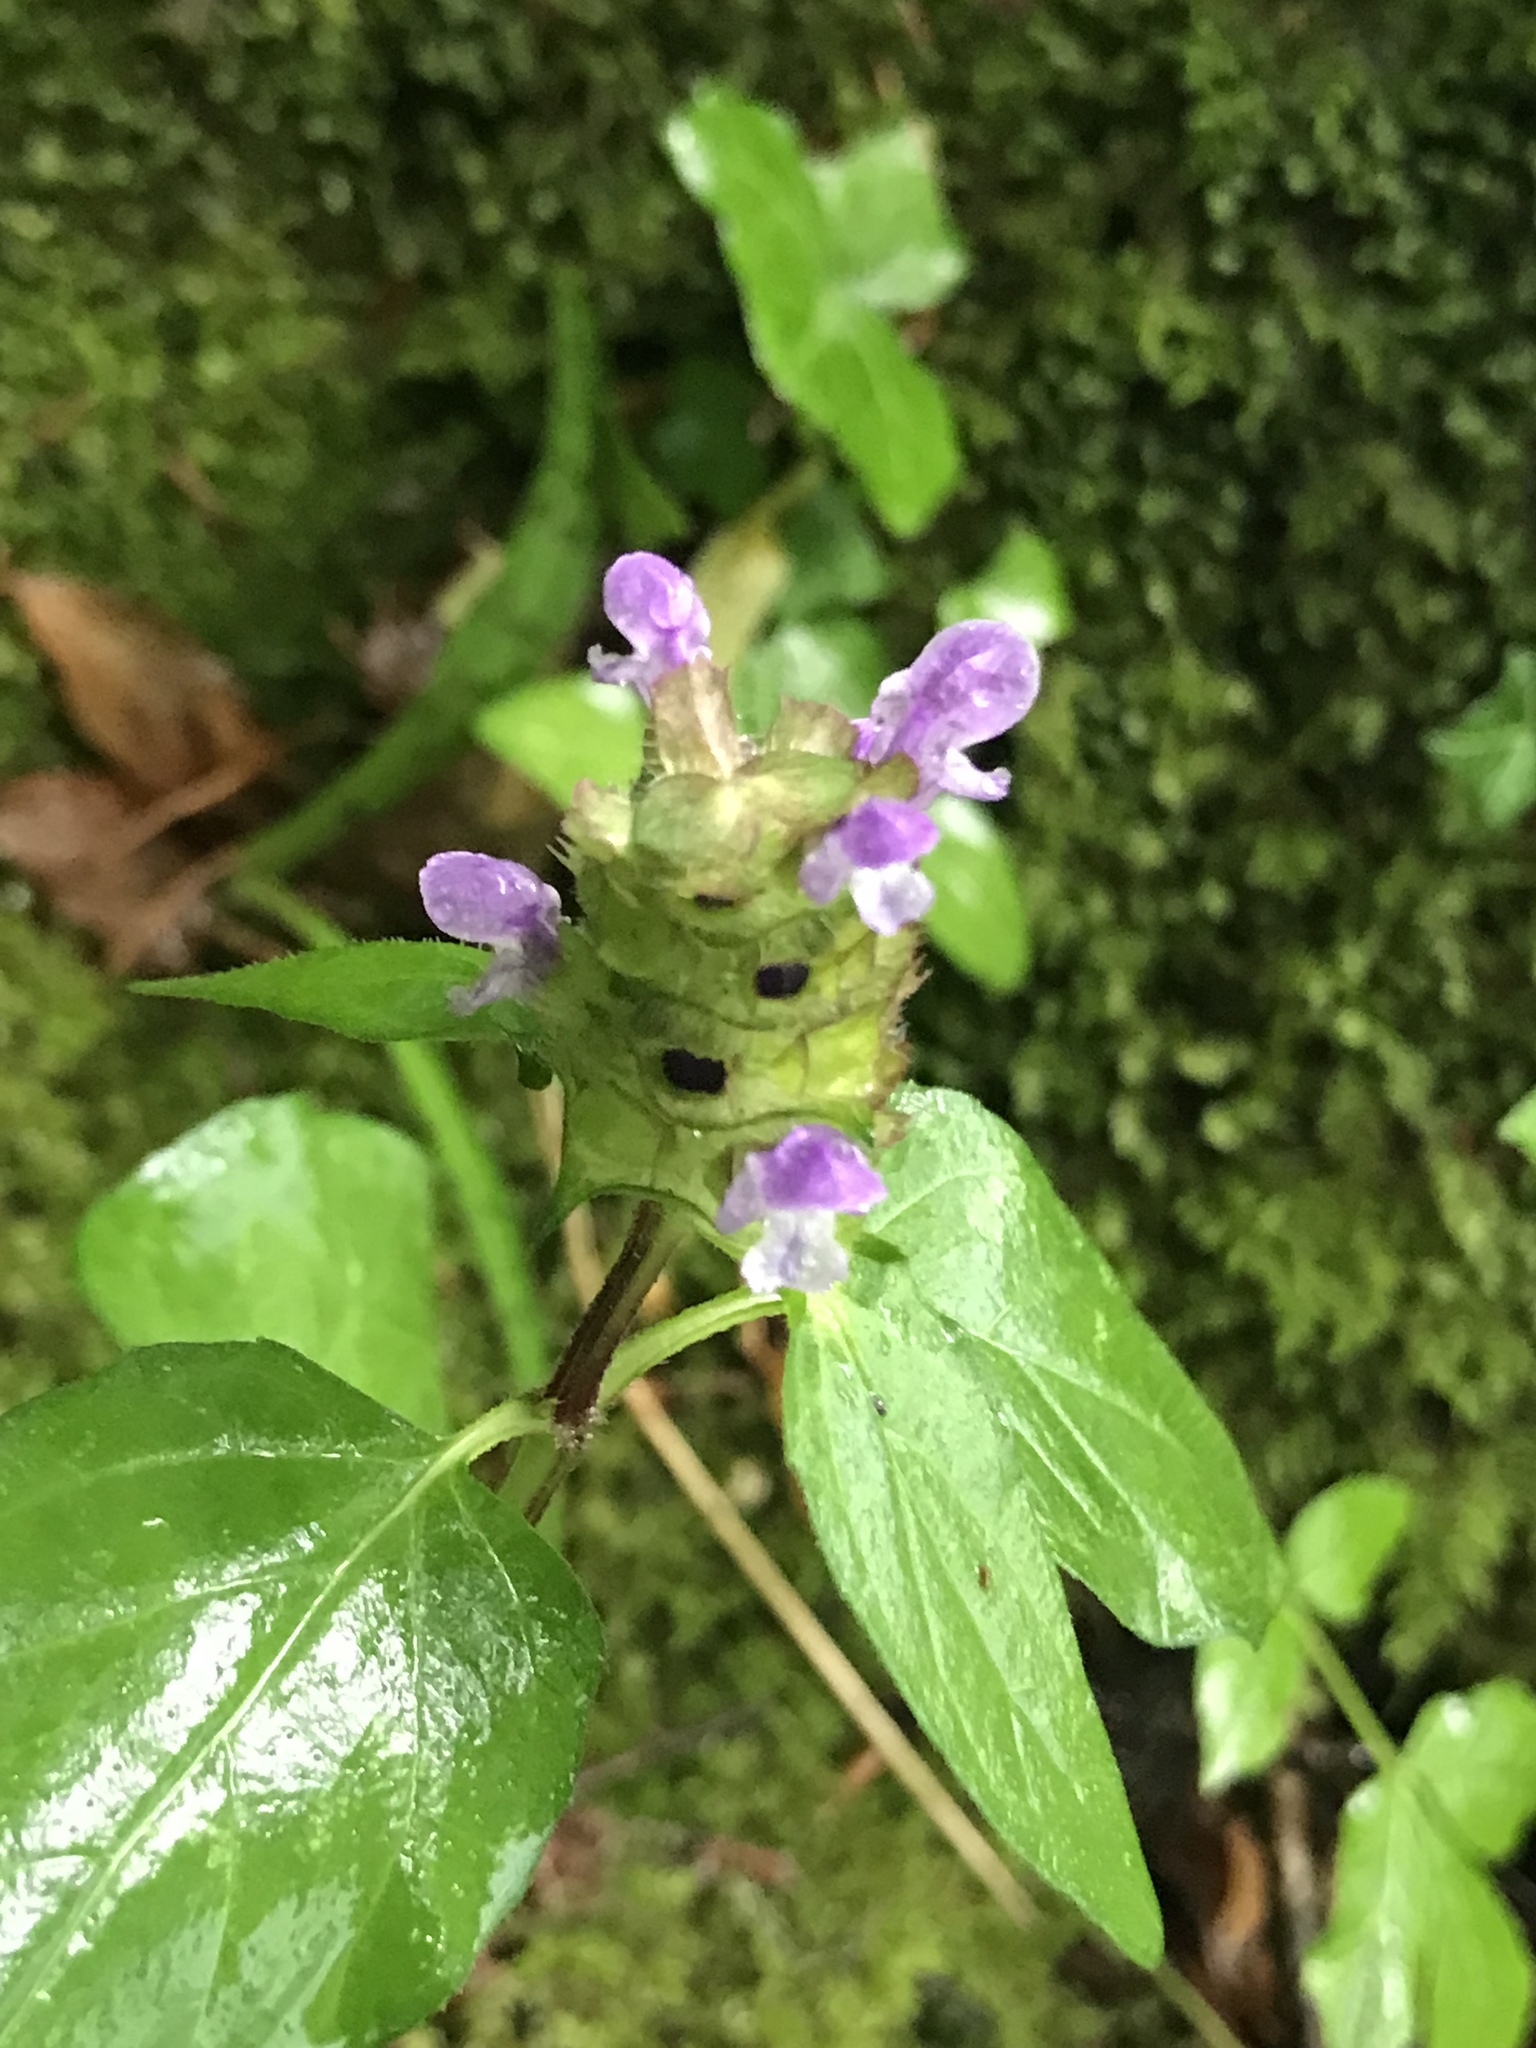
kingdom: Plantae
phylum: Tracheophyta
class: Magnoliopsida
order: Lamiales
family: Lamiaceae
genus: Prunella
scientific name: Prunella vulgaris
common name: Heal-all
